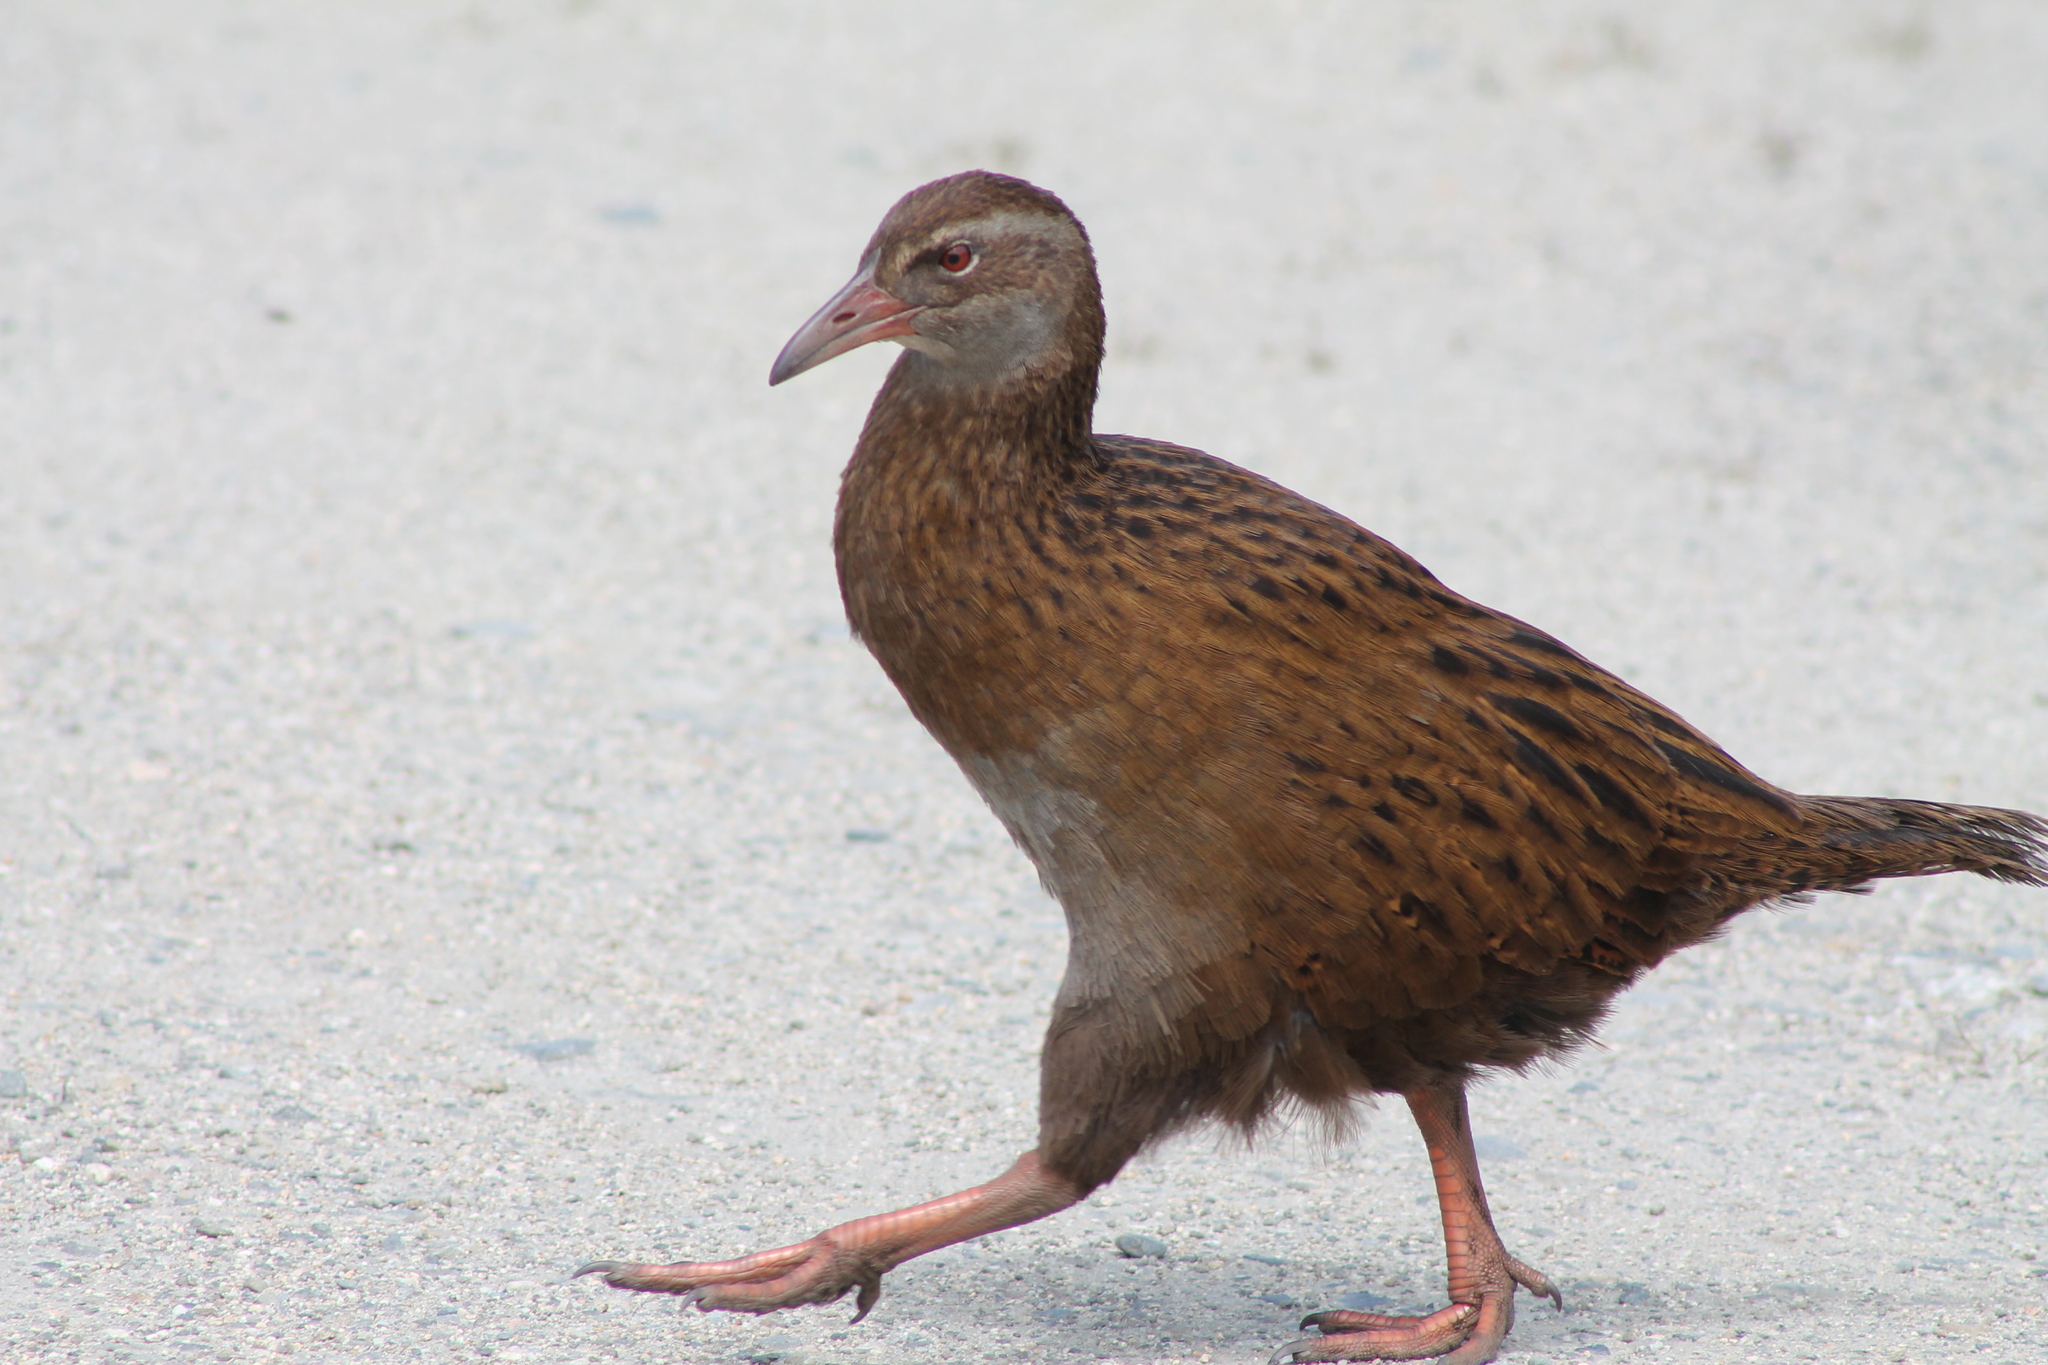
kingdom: Animalia
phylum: Chordata
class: Aves
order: Gruiformes
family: Rallidae
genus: Gallirallus
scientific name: Gallirallus australis
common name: Weka
